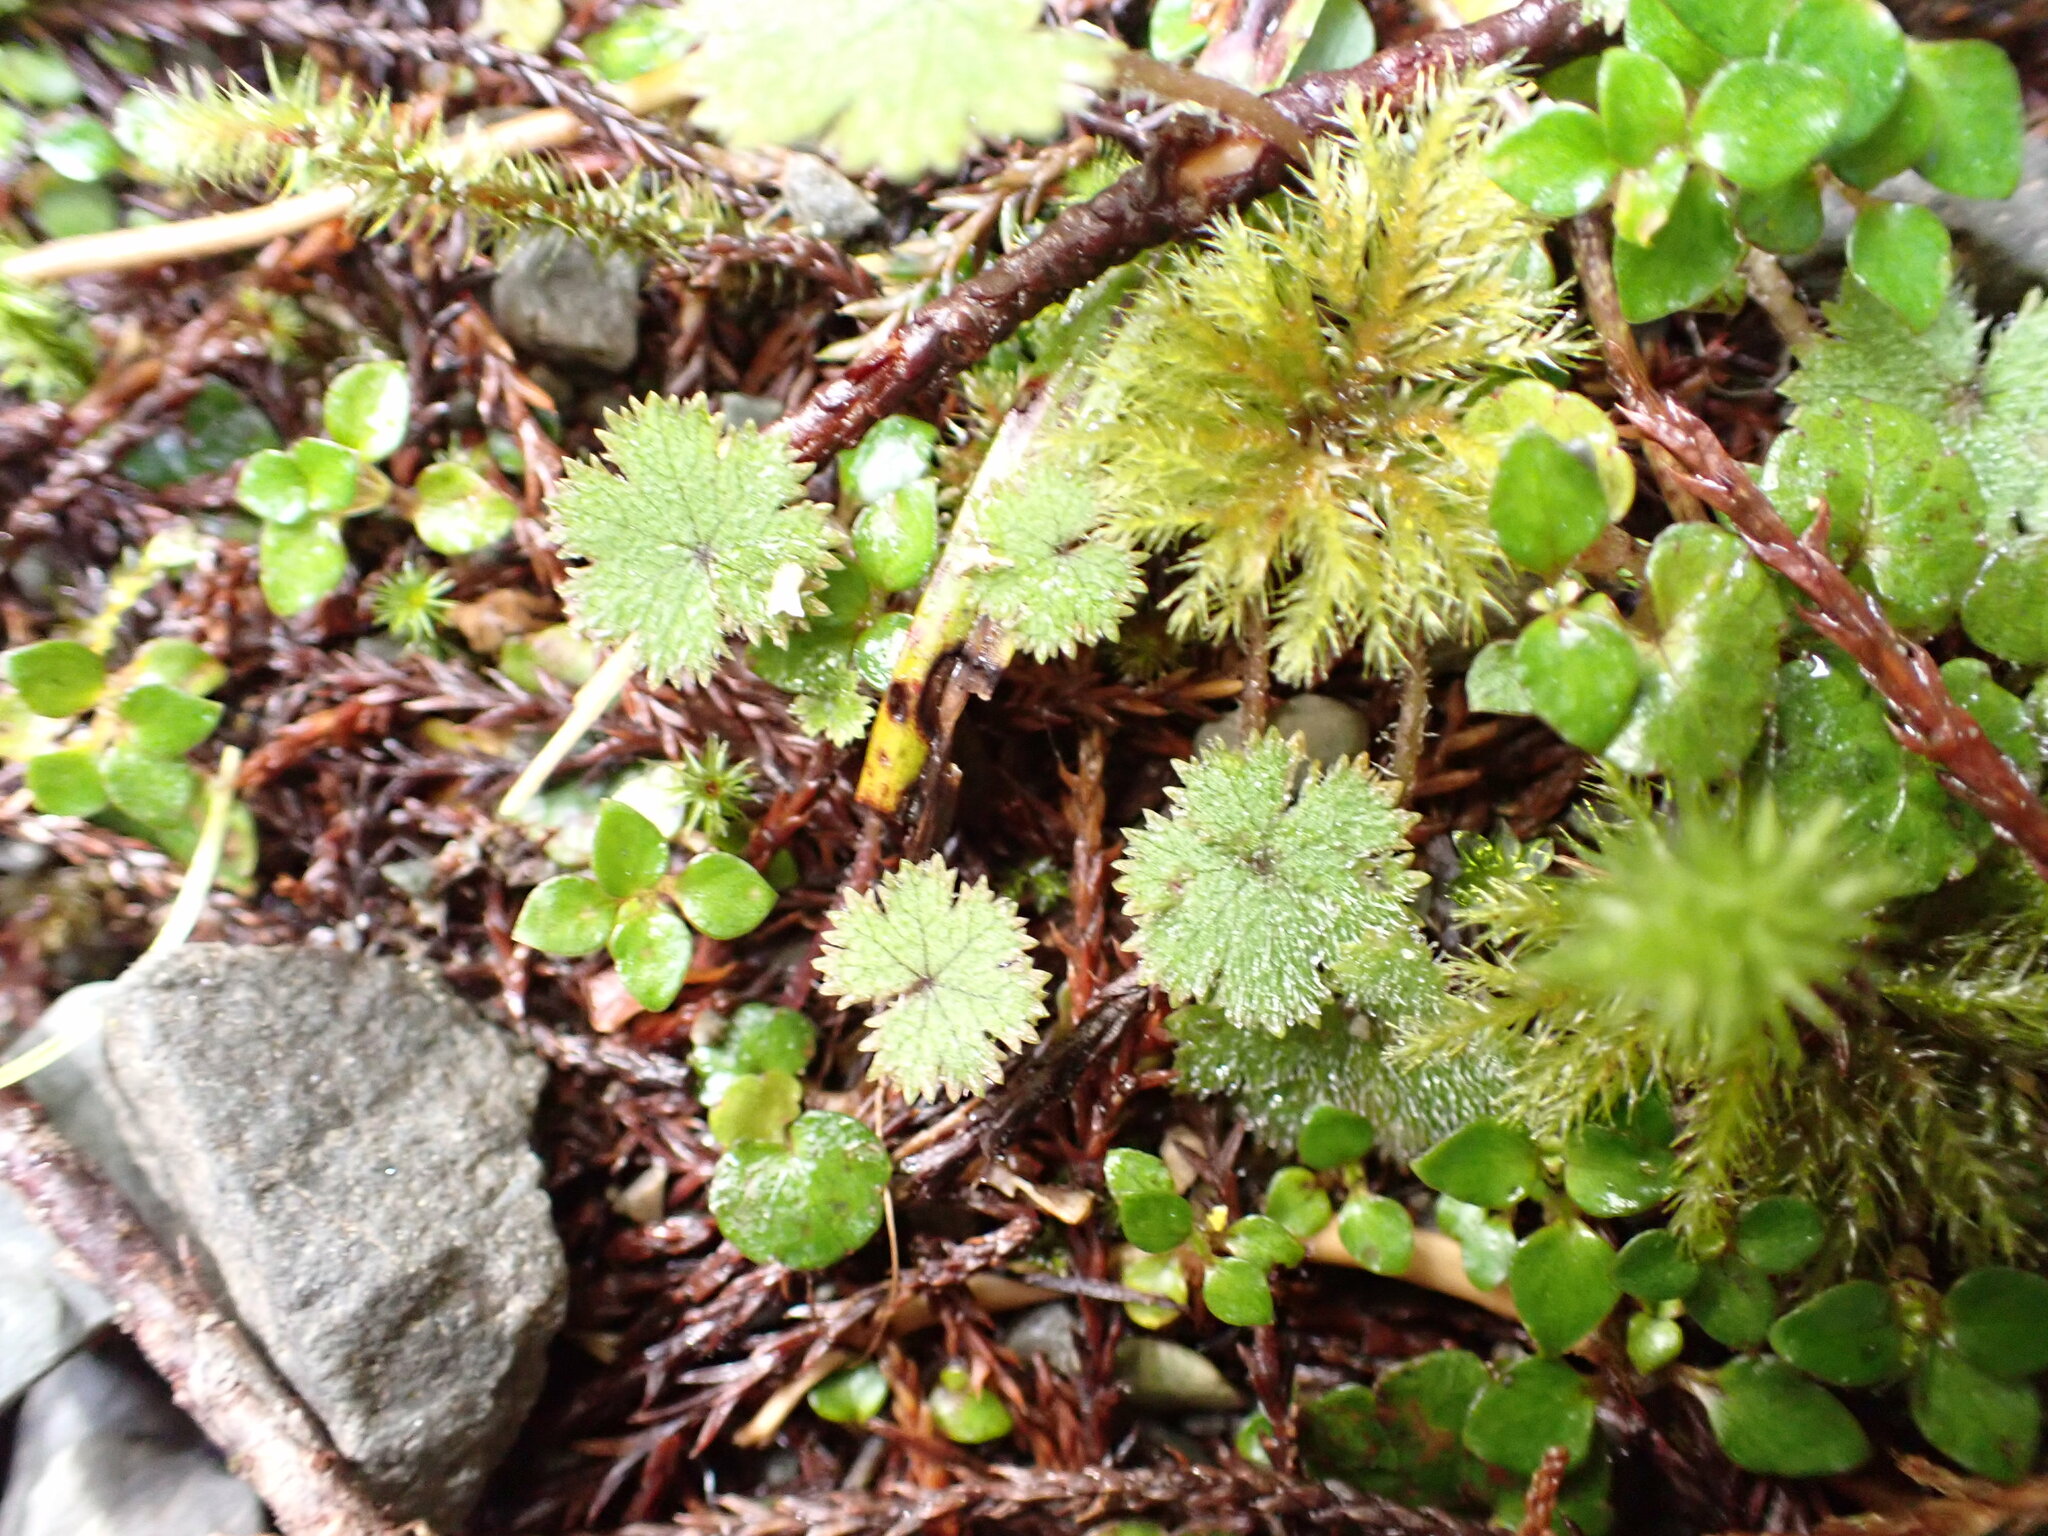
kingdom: Plantae
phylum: Tracheophyta
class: Magnoliopsida
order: Apiales
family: Araliaceae
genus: Hydrocotyle
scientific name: Hydrocotyle moschata
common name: Hairy pennywort
